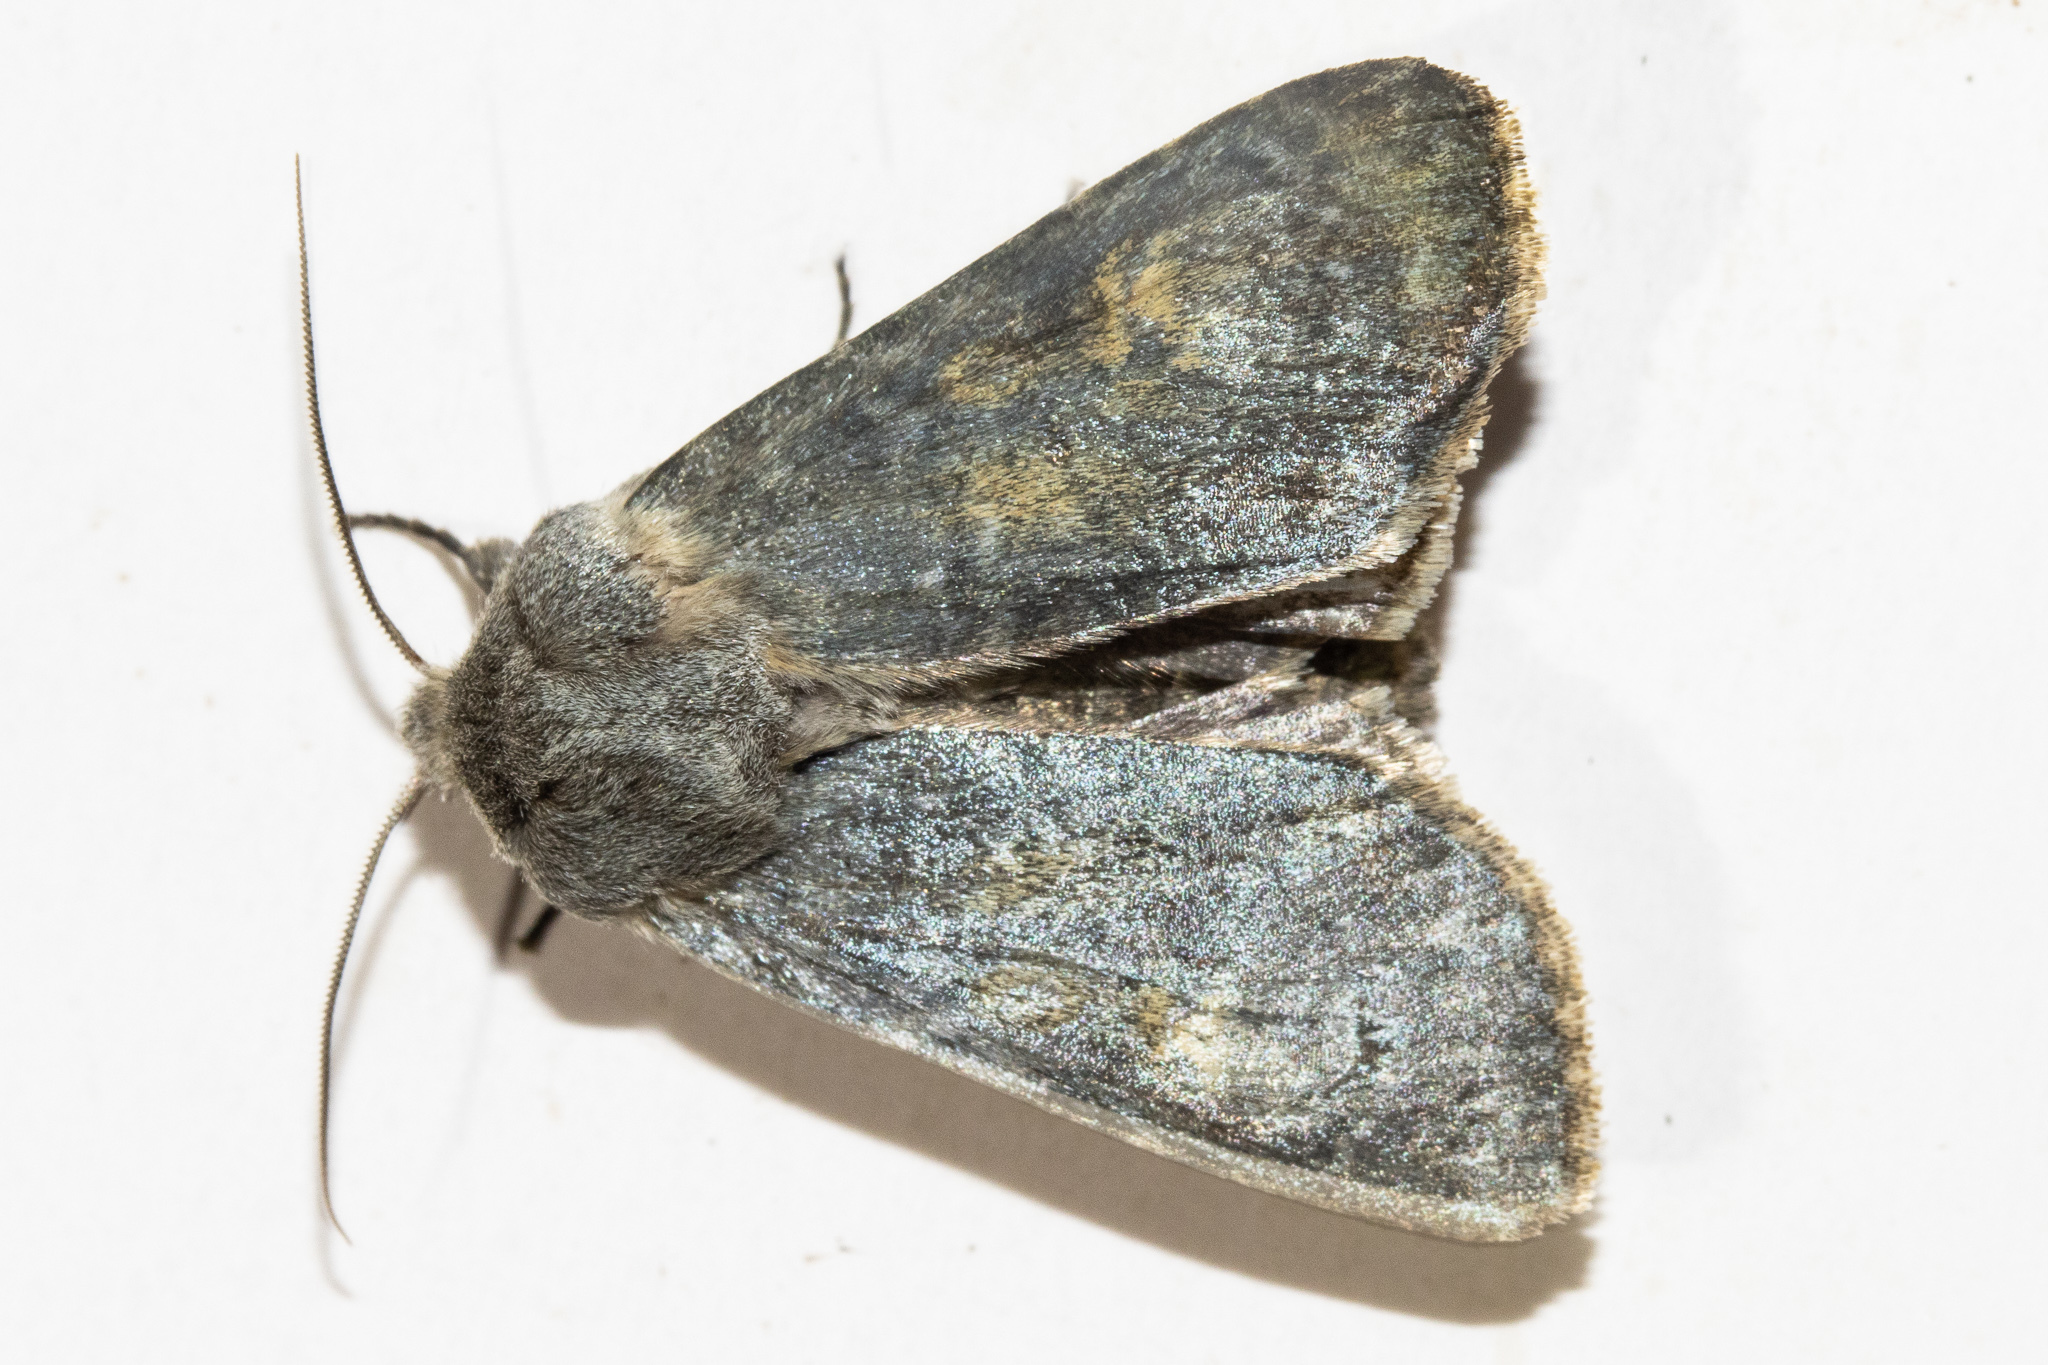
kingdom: Animalia
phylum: Arthropoda
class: Insecta
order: Lepidoptera
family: Noctuidae
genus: Ichneutica
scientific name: Ichneutica
